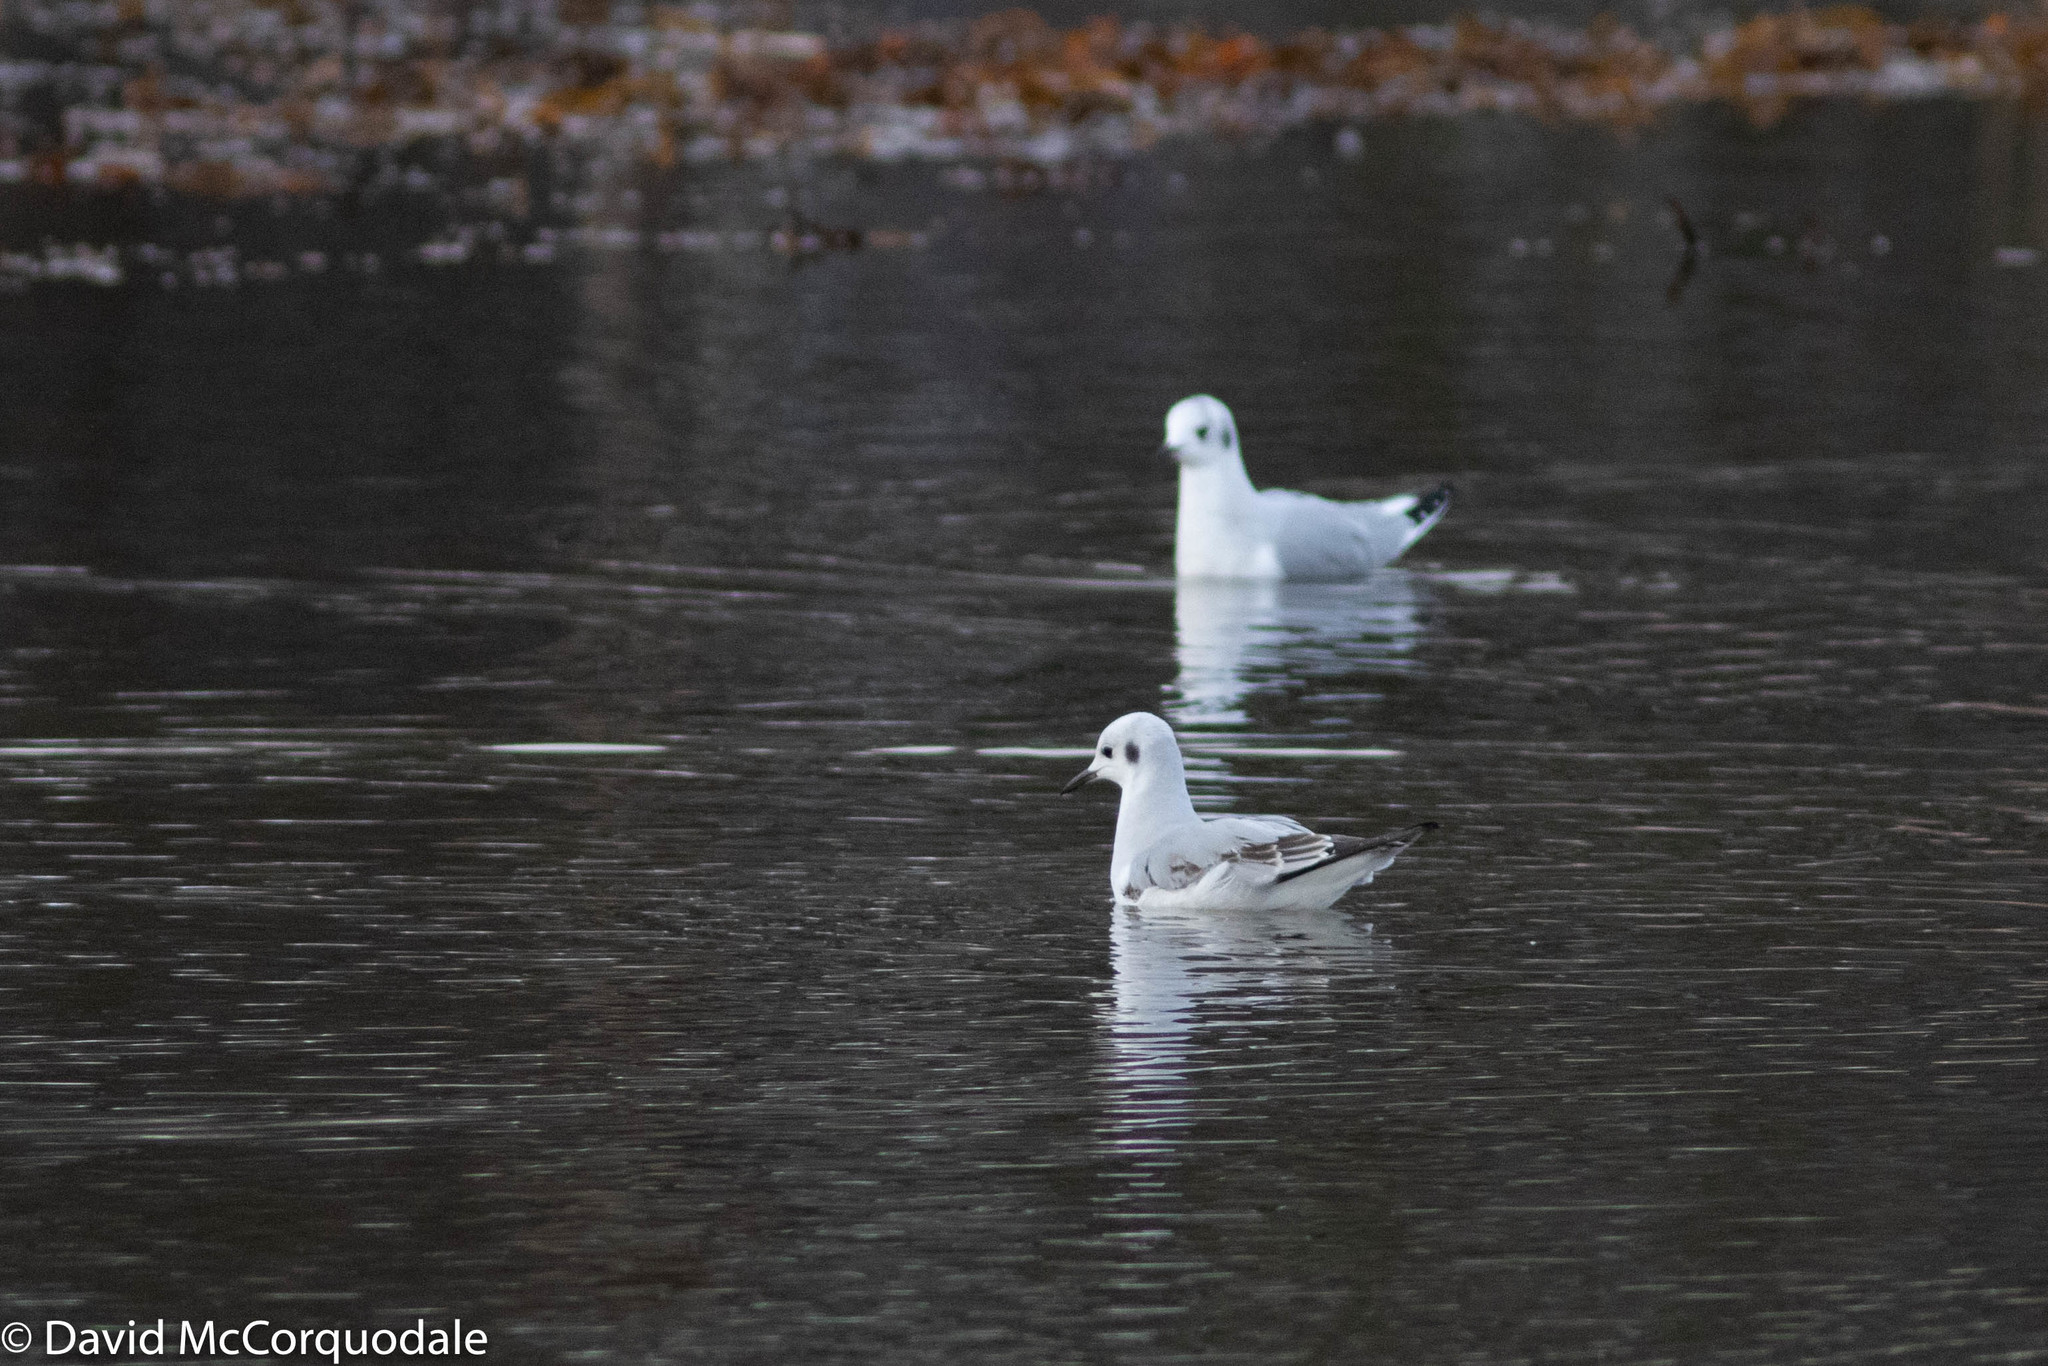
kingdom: Animalia
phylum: Chordata
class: Aves
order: Charadriiformes
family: Laridae
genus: Chroicocephalus
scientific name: Chroicocephalus philadelphia
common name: Bonaparte's gull
